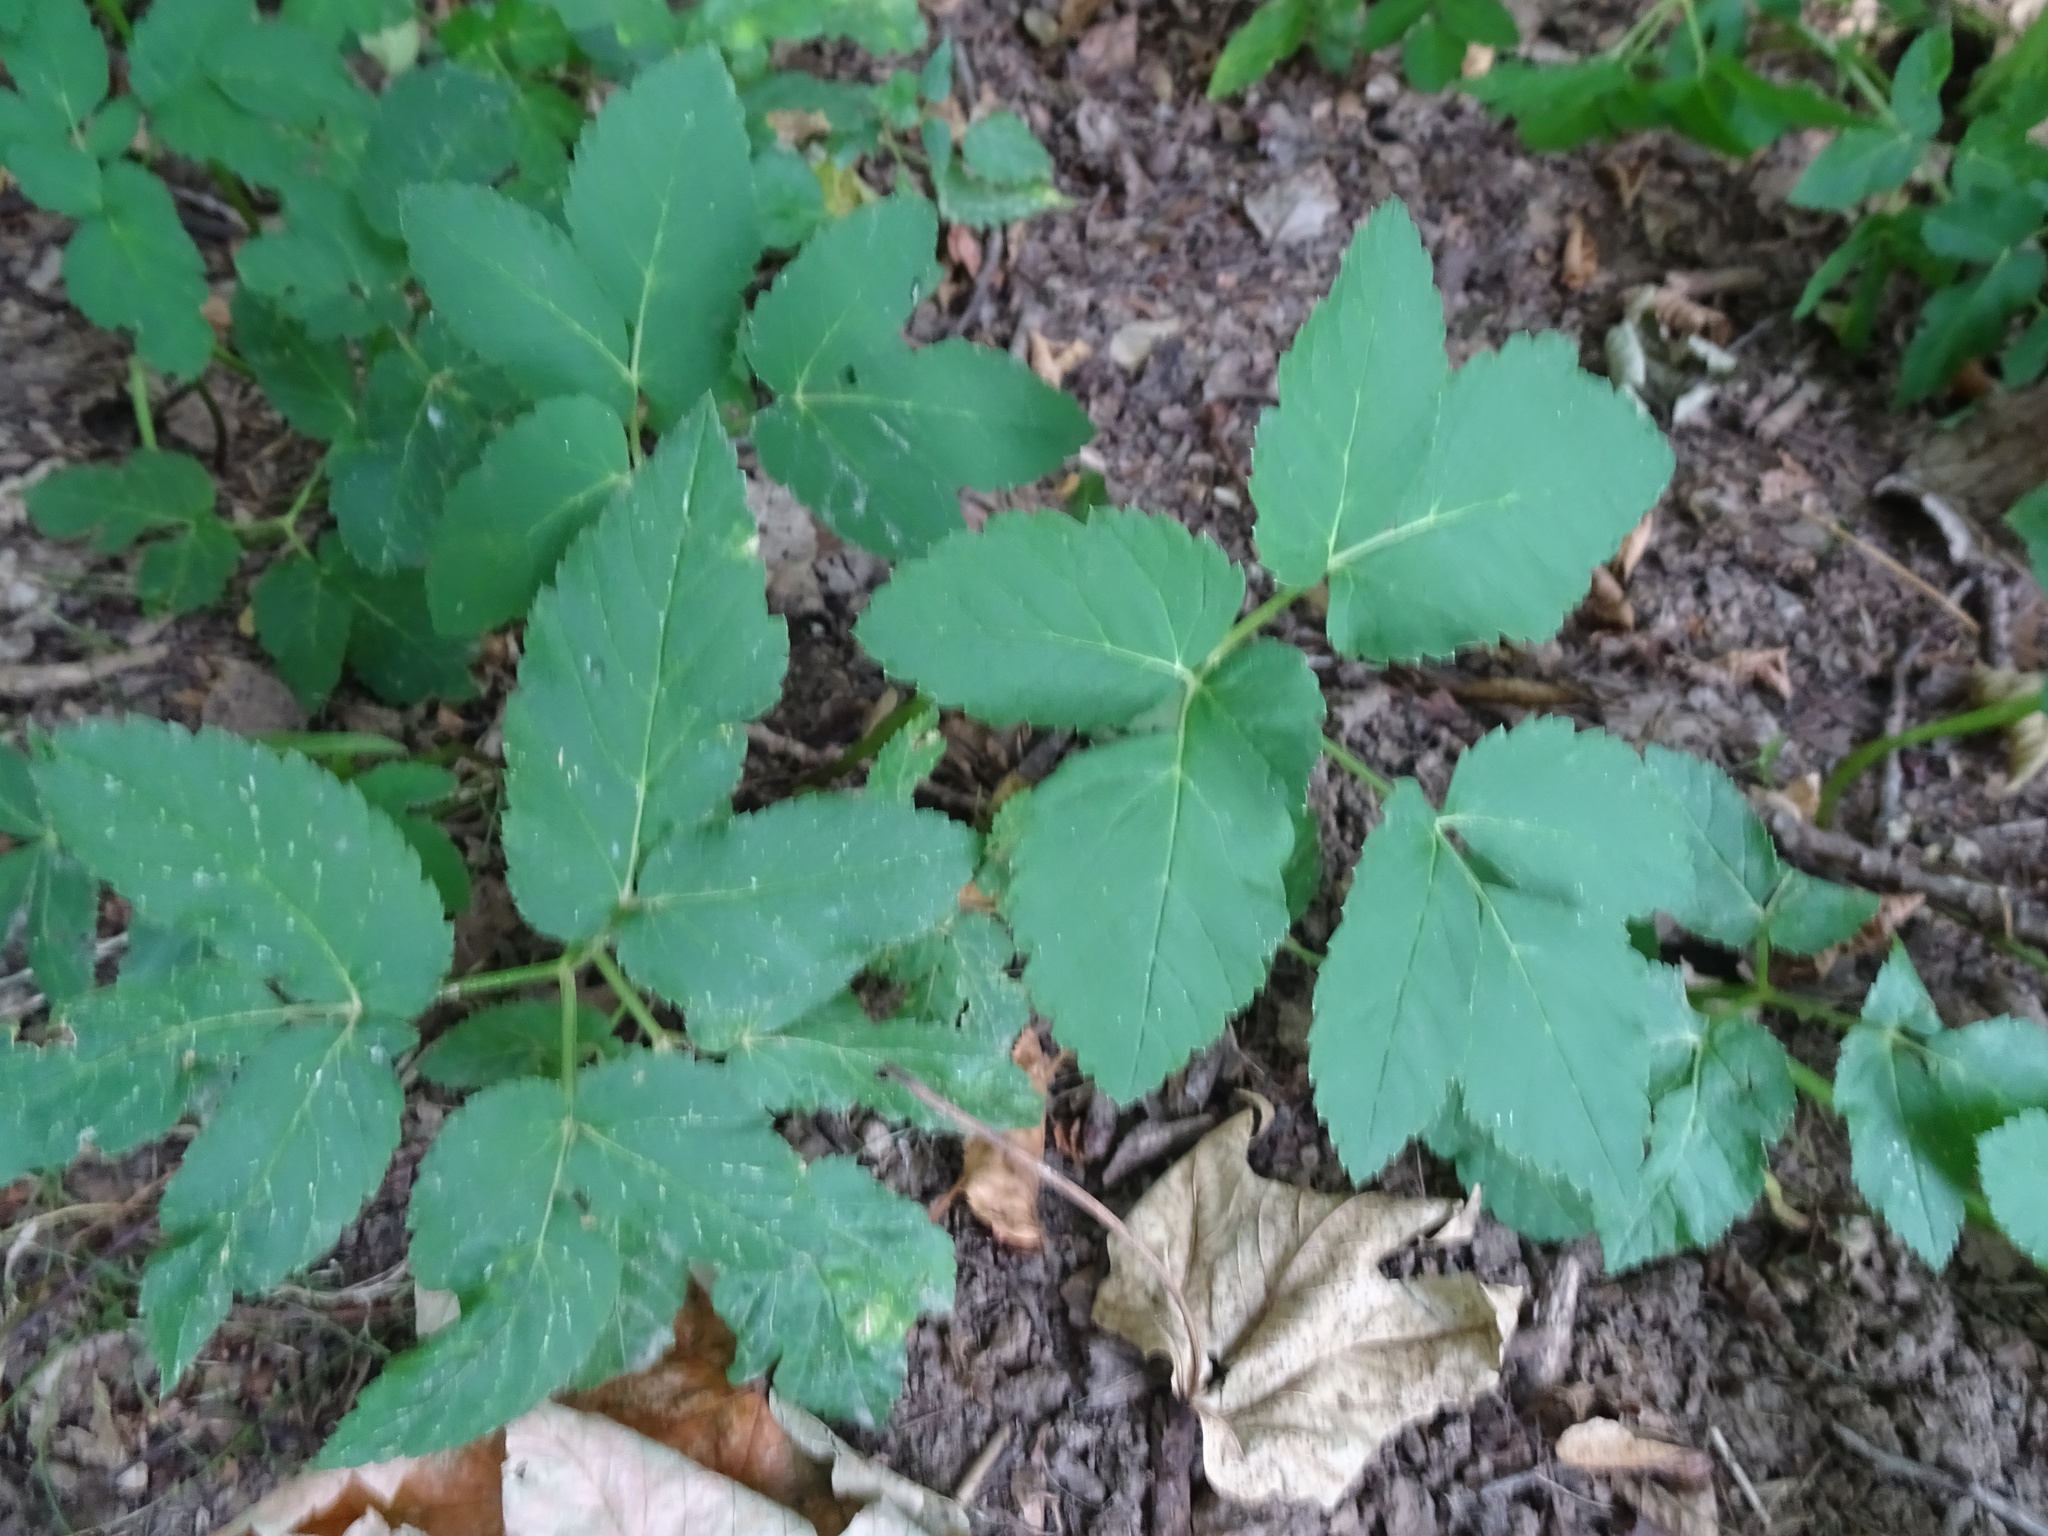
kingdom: Plantae
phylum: Tracheophyta
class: Magnoliopsida
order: Apiales
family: Apiaceae
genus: Aegopodium
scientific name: Aegopodium podagraria
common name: Ground-elder
